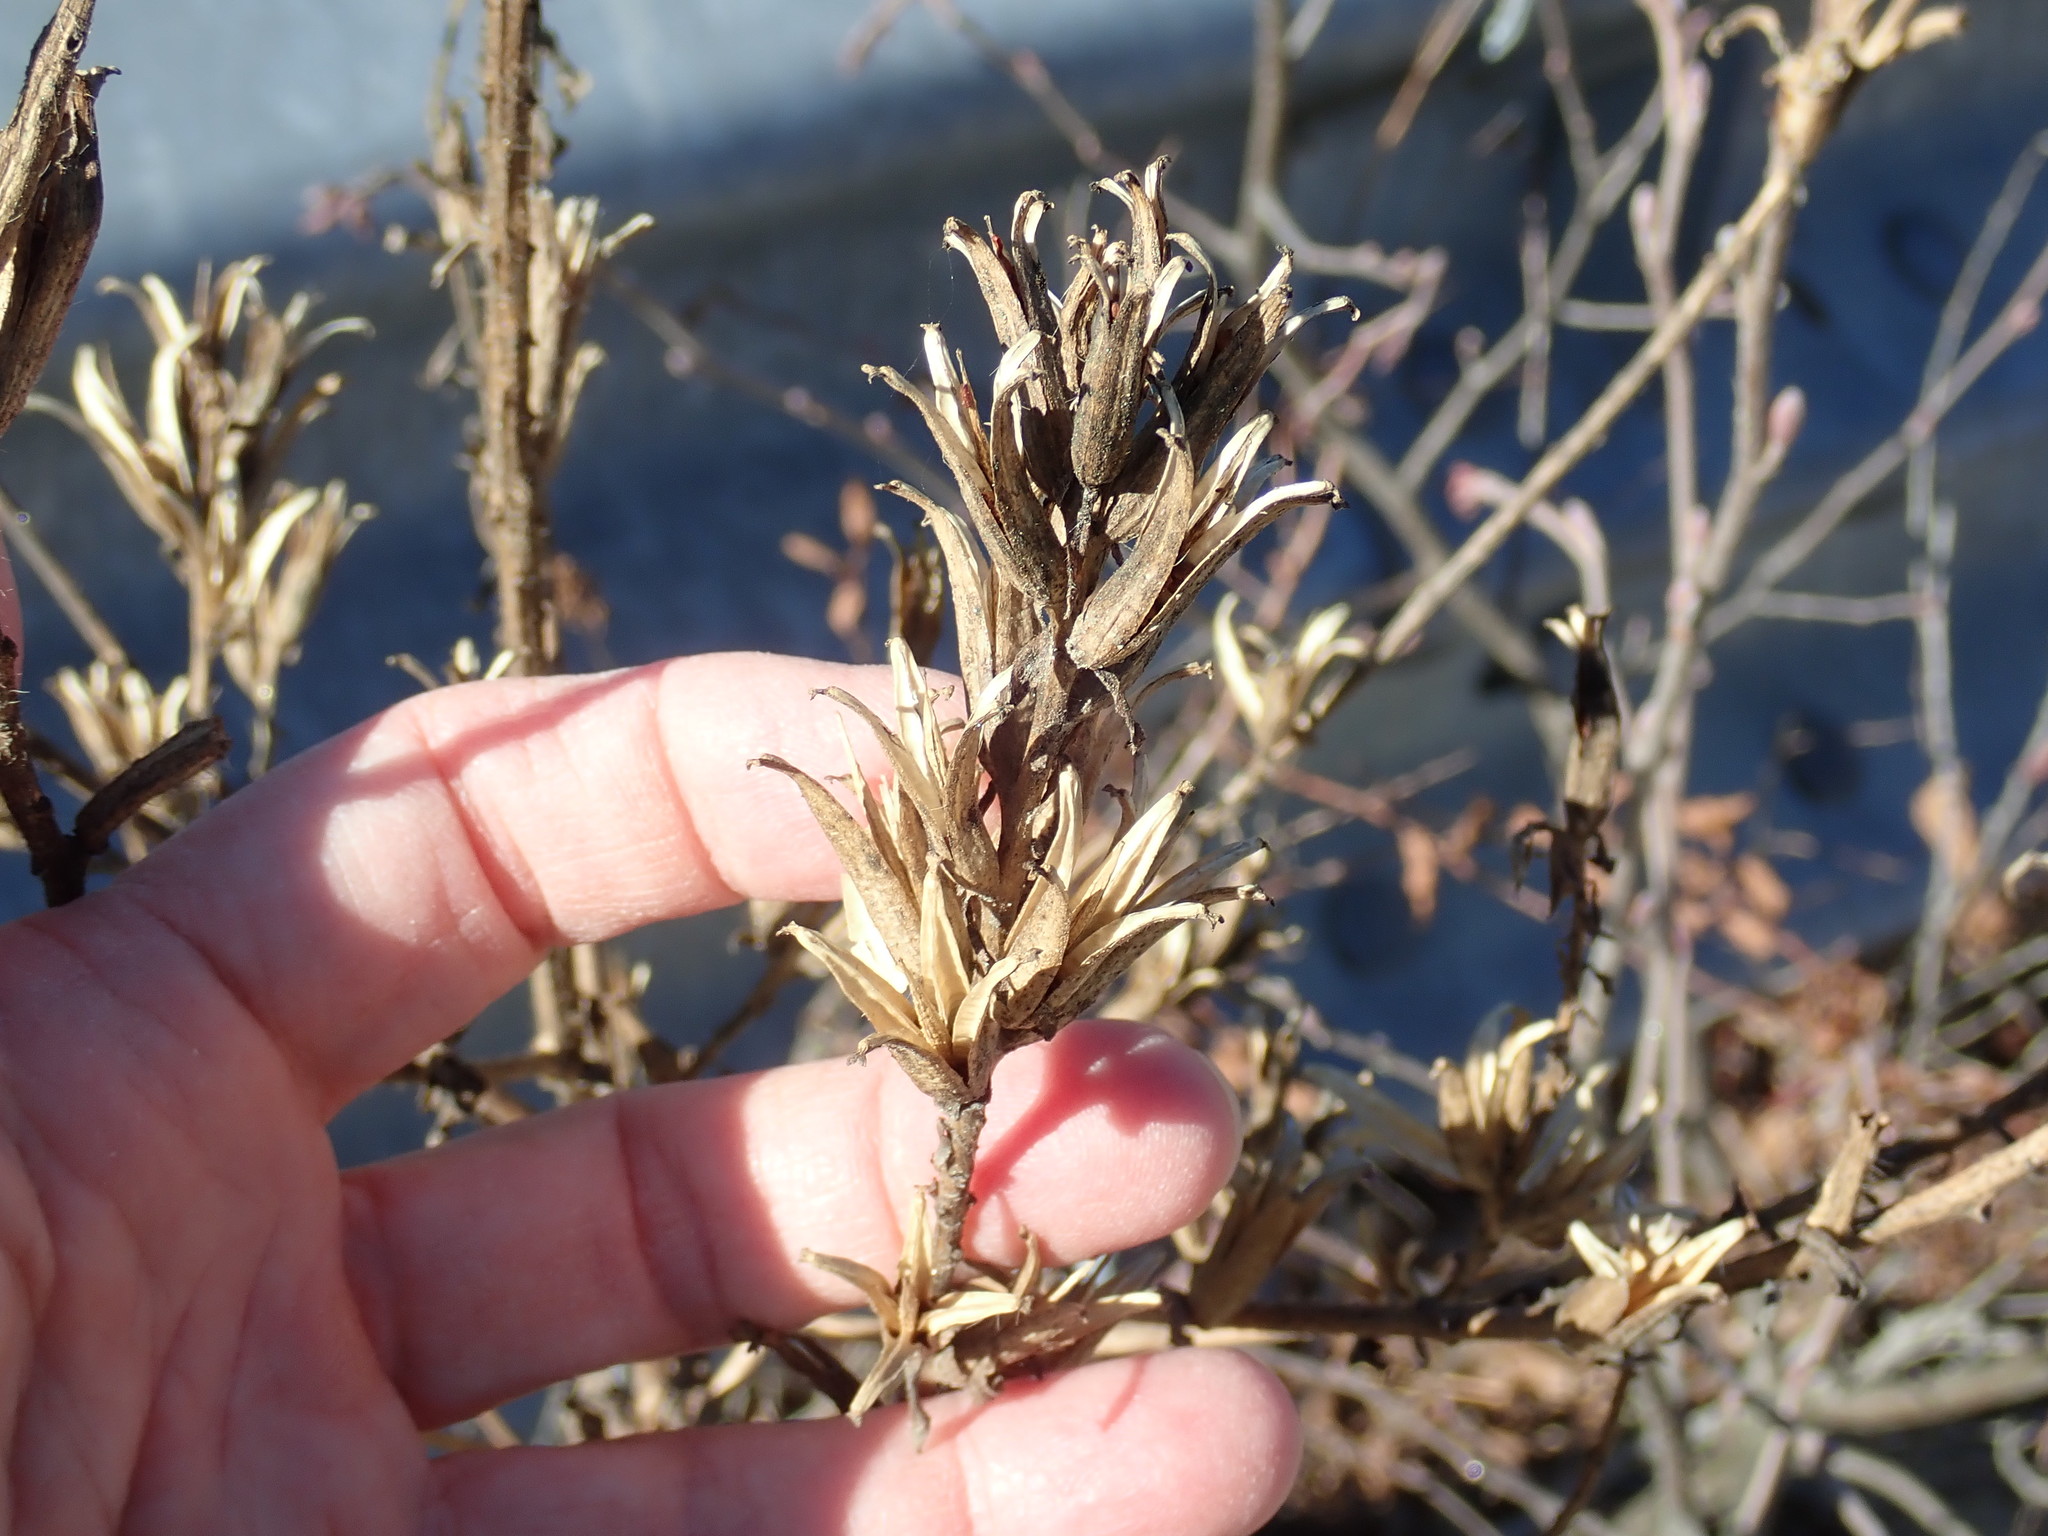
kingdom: Plantae
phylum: Tracheophyta
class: Magnoliopsida
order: Myrtales
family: Onagraceae
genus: Oenothera
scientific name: Oenothera biennis
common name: Common evening-primrose
